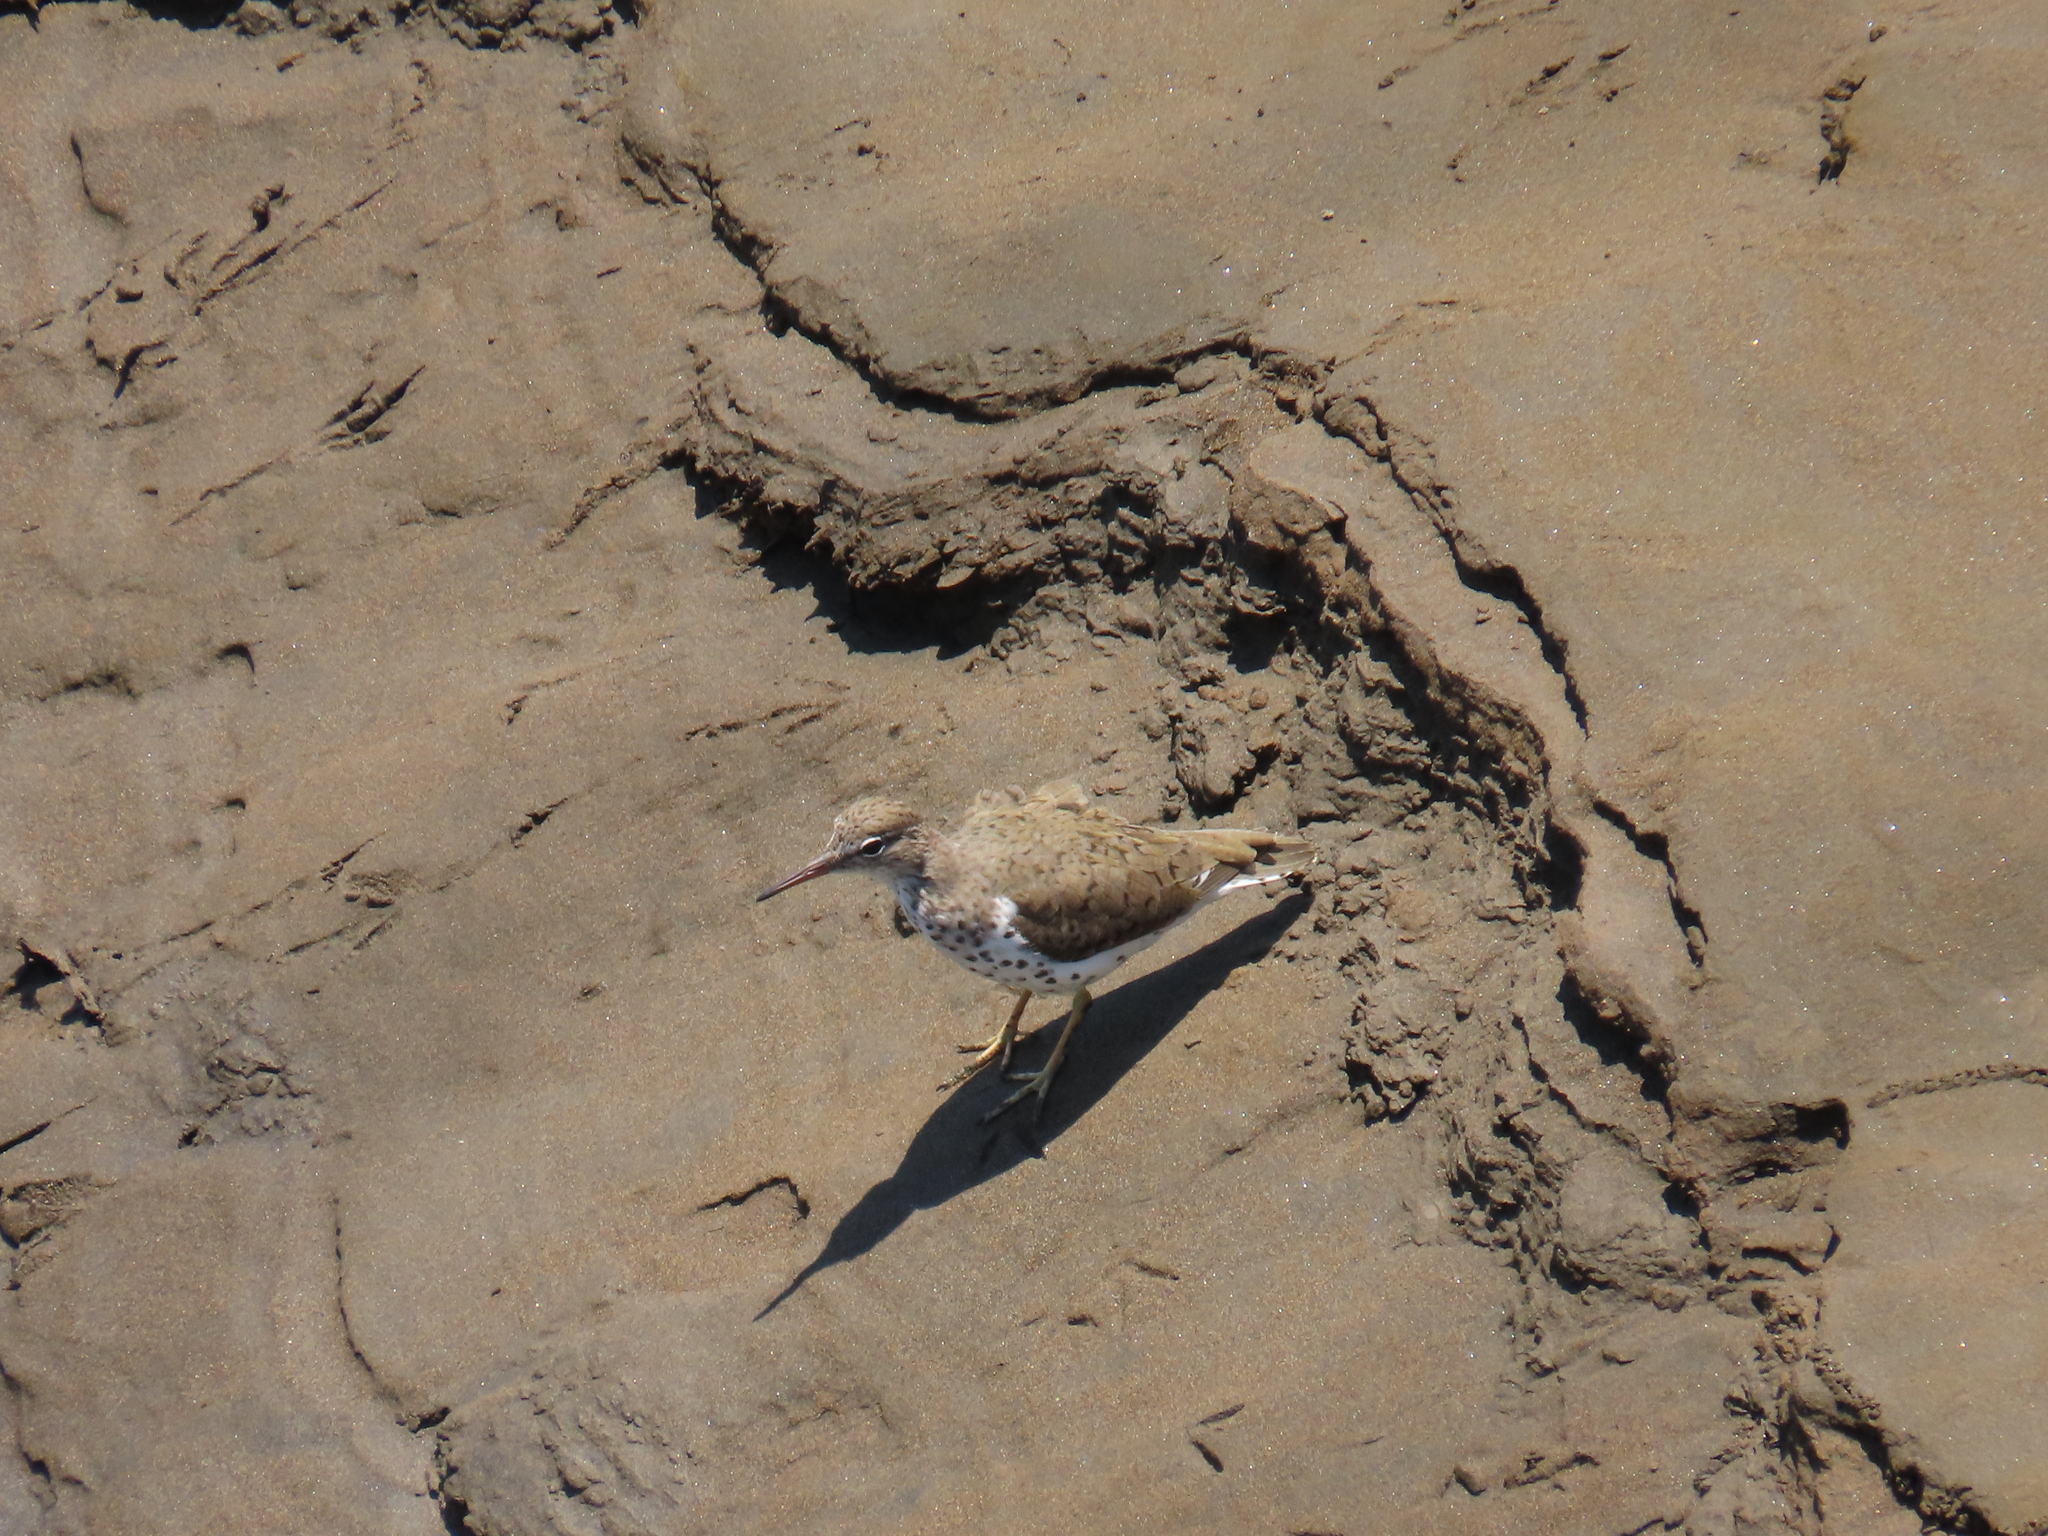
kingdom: Animalia
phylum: Chordata
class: Aves
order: Charadriiformes
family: Scolopacidae
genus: Actitis
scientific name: Actitis macularius
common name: Spotted sandpiper
